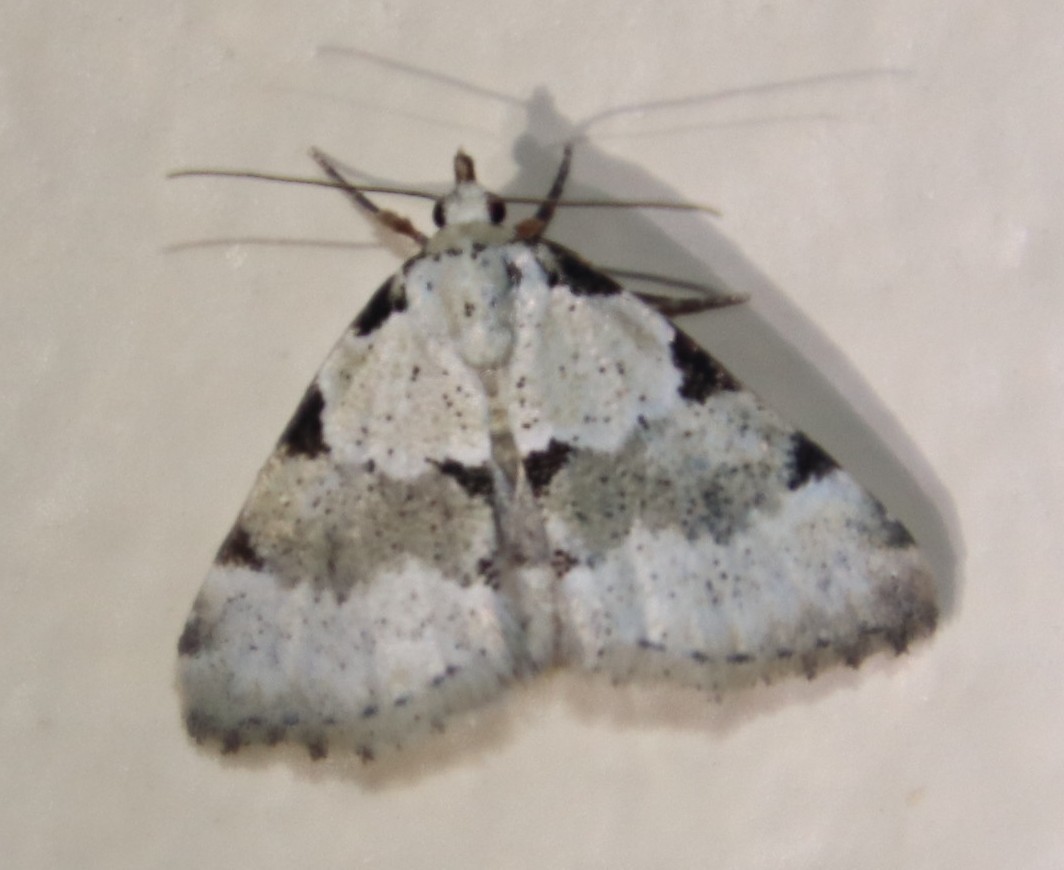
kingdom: Animalia
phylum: Arthropoda
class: Insecta
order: Lepidoptera
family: Noctuidae
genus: Tegiapa
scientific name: Tegiapa goateri
